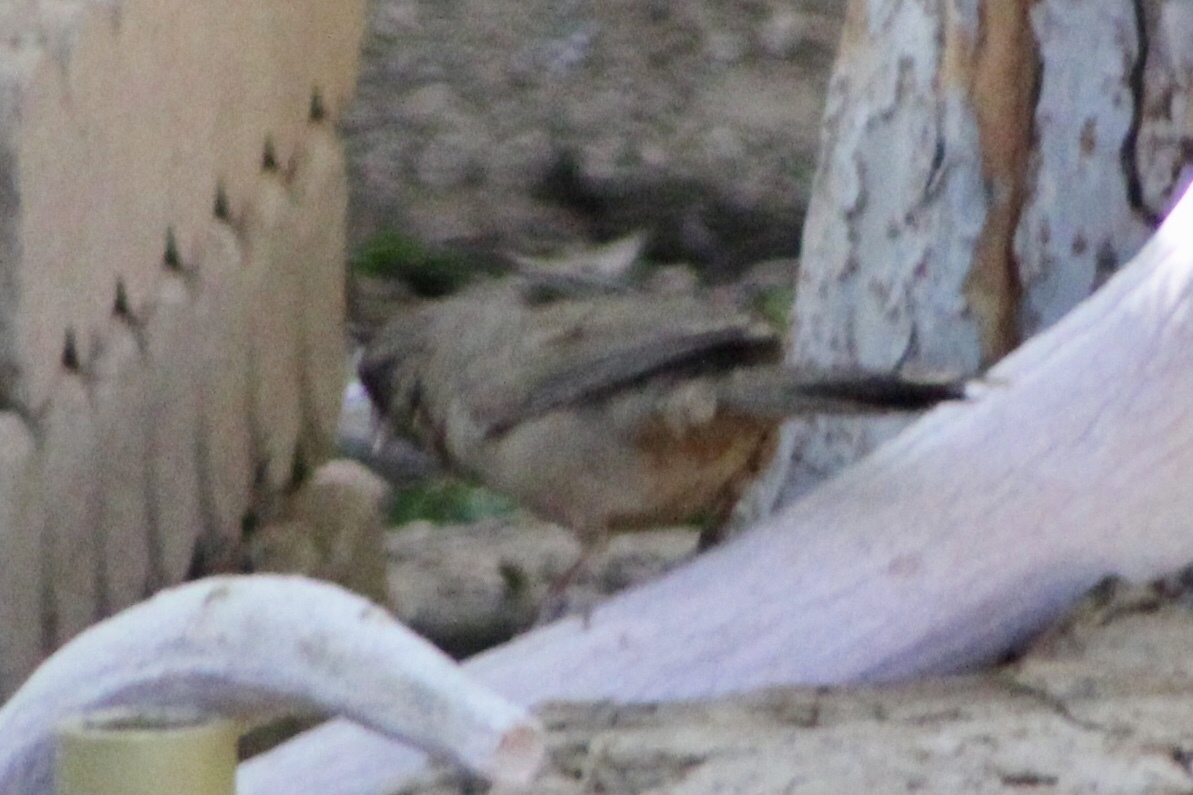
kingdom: Animalia
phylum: Chordata
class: Aves
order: Passeriformes
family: Passerellidae
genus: Melozone
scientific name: Melozone aberti
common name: Abert's towhee
